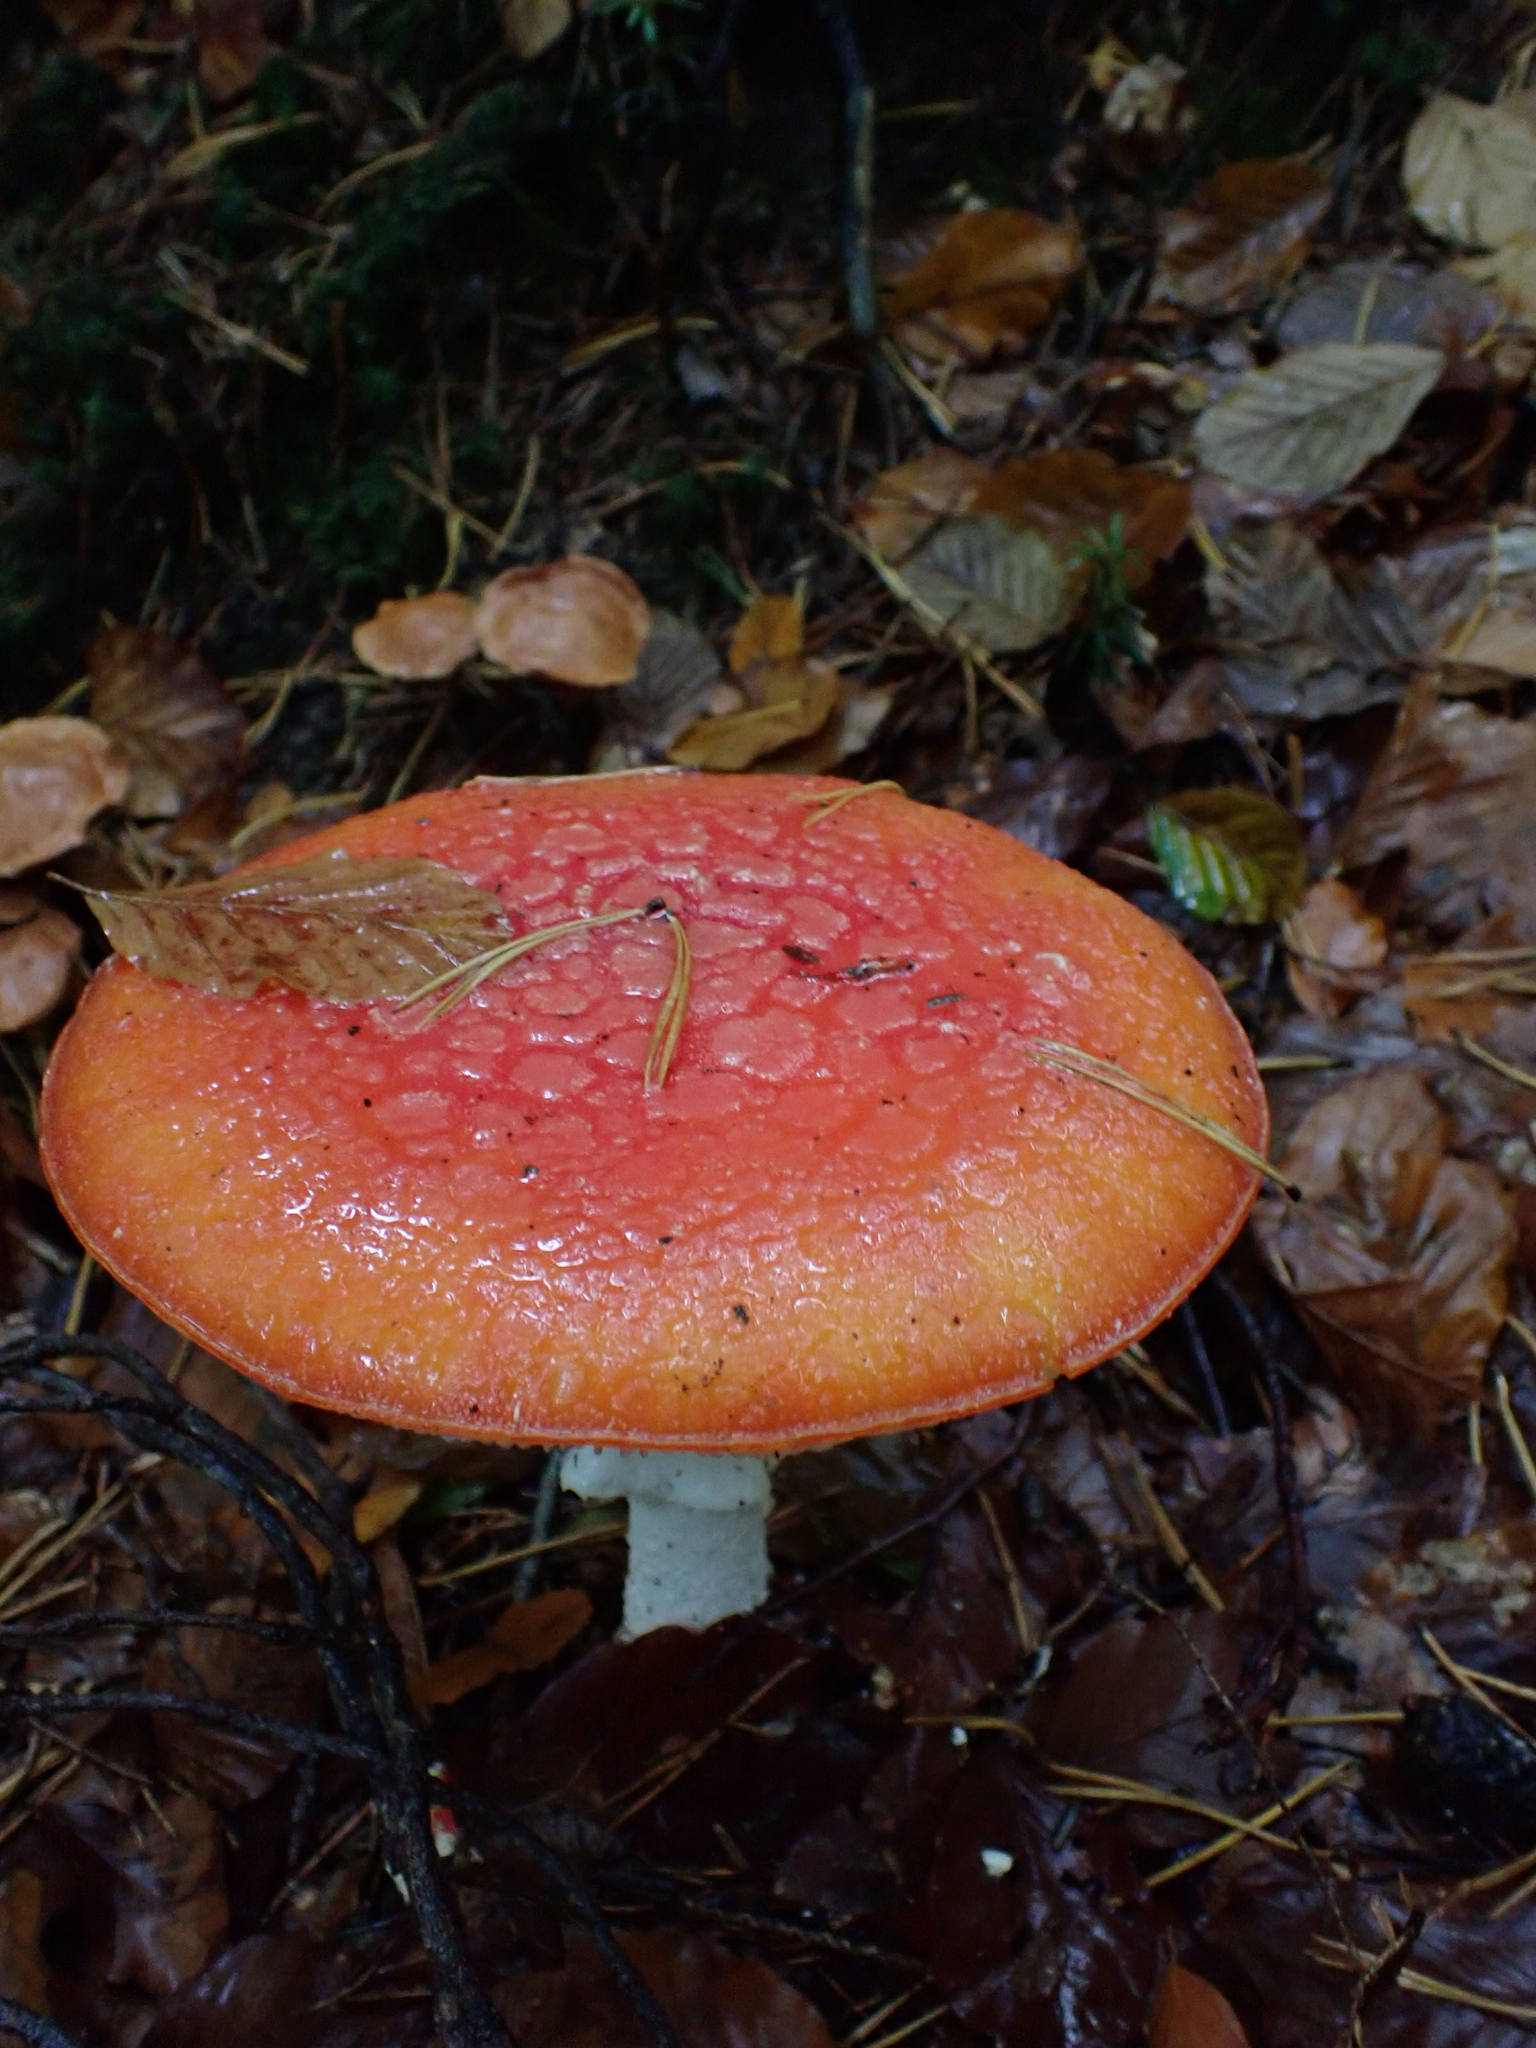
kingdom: Fungi
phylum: Basidiomycota
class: Agaricomycetes
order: Agaricales
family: Amanitaceae
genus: Amanita
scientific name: Amanita muscaria
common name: Fly agaric
